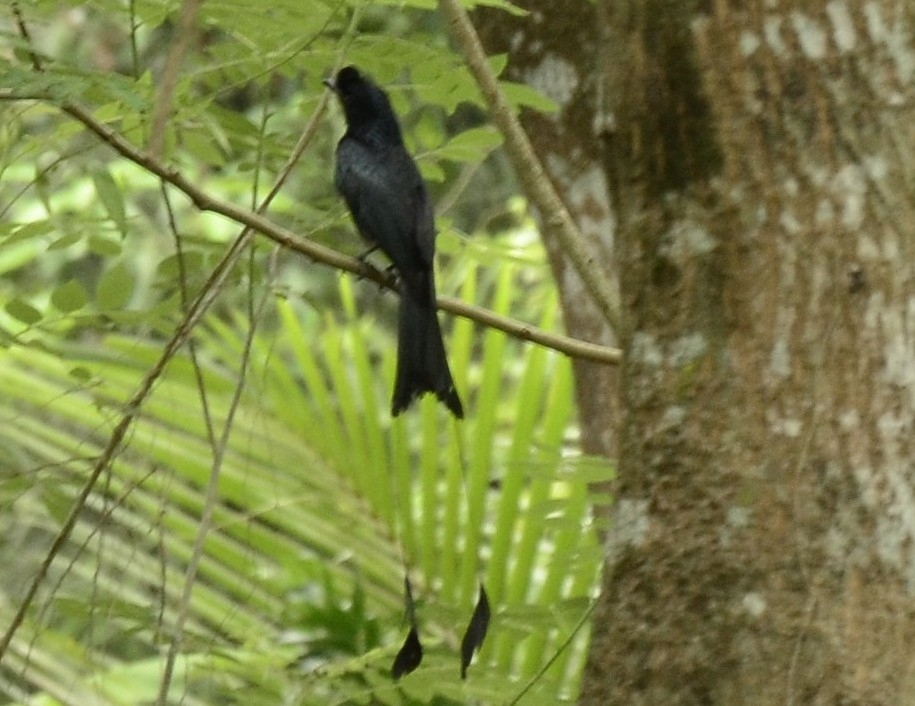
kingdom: Animalia
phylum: Chordata
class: Aves
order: Passeriformes
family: Dicruridae
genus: Dicrurus
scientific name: Dicrurus paradiseus
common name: Greater racket-tailed drongo
